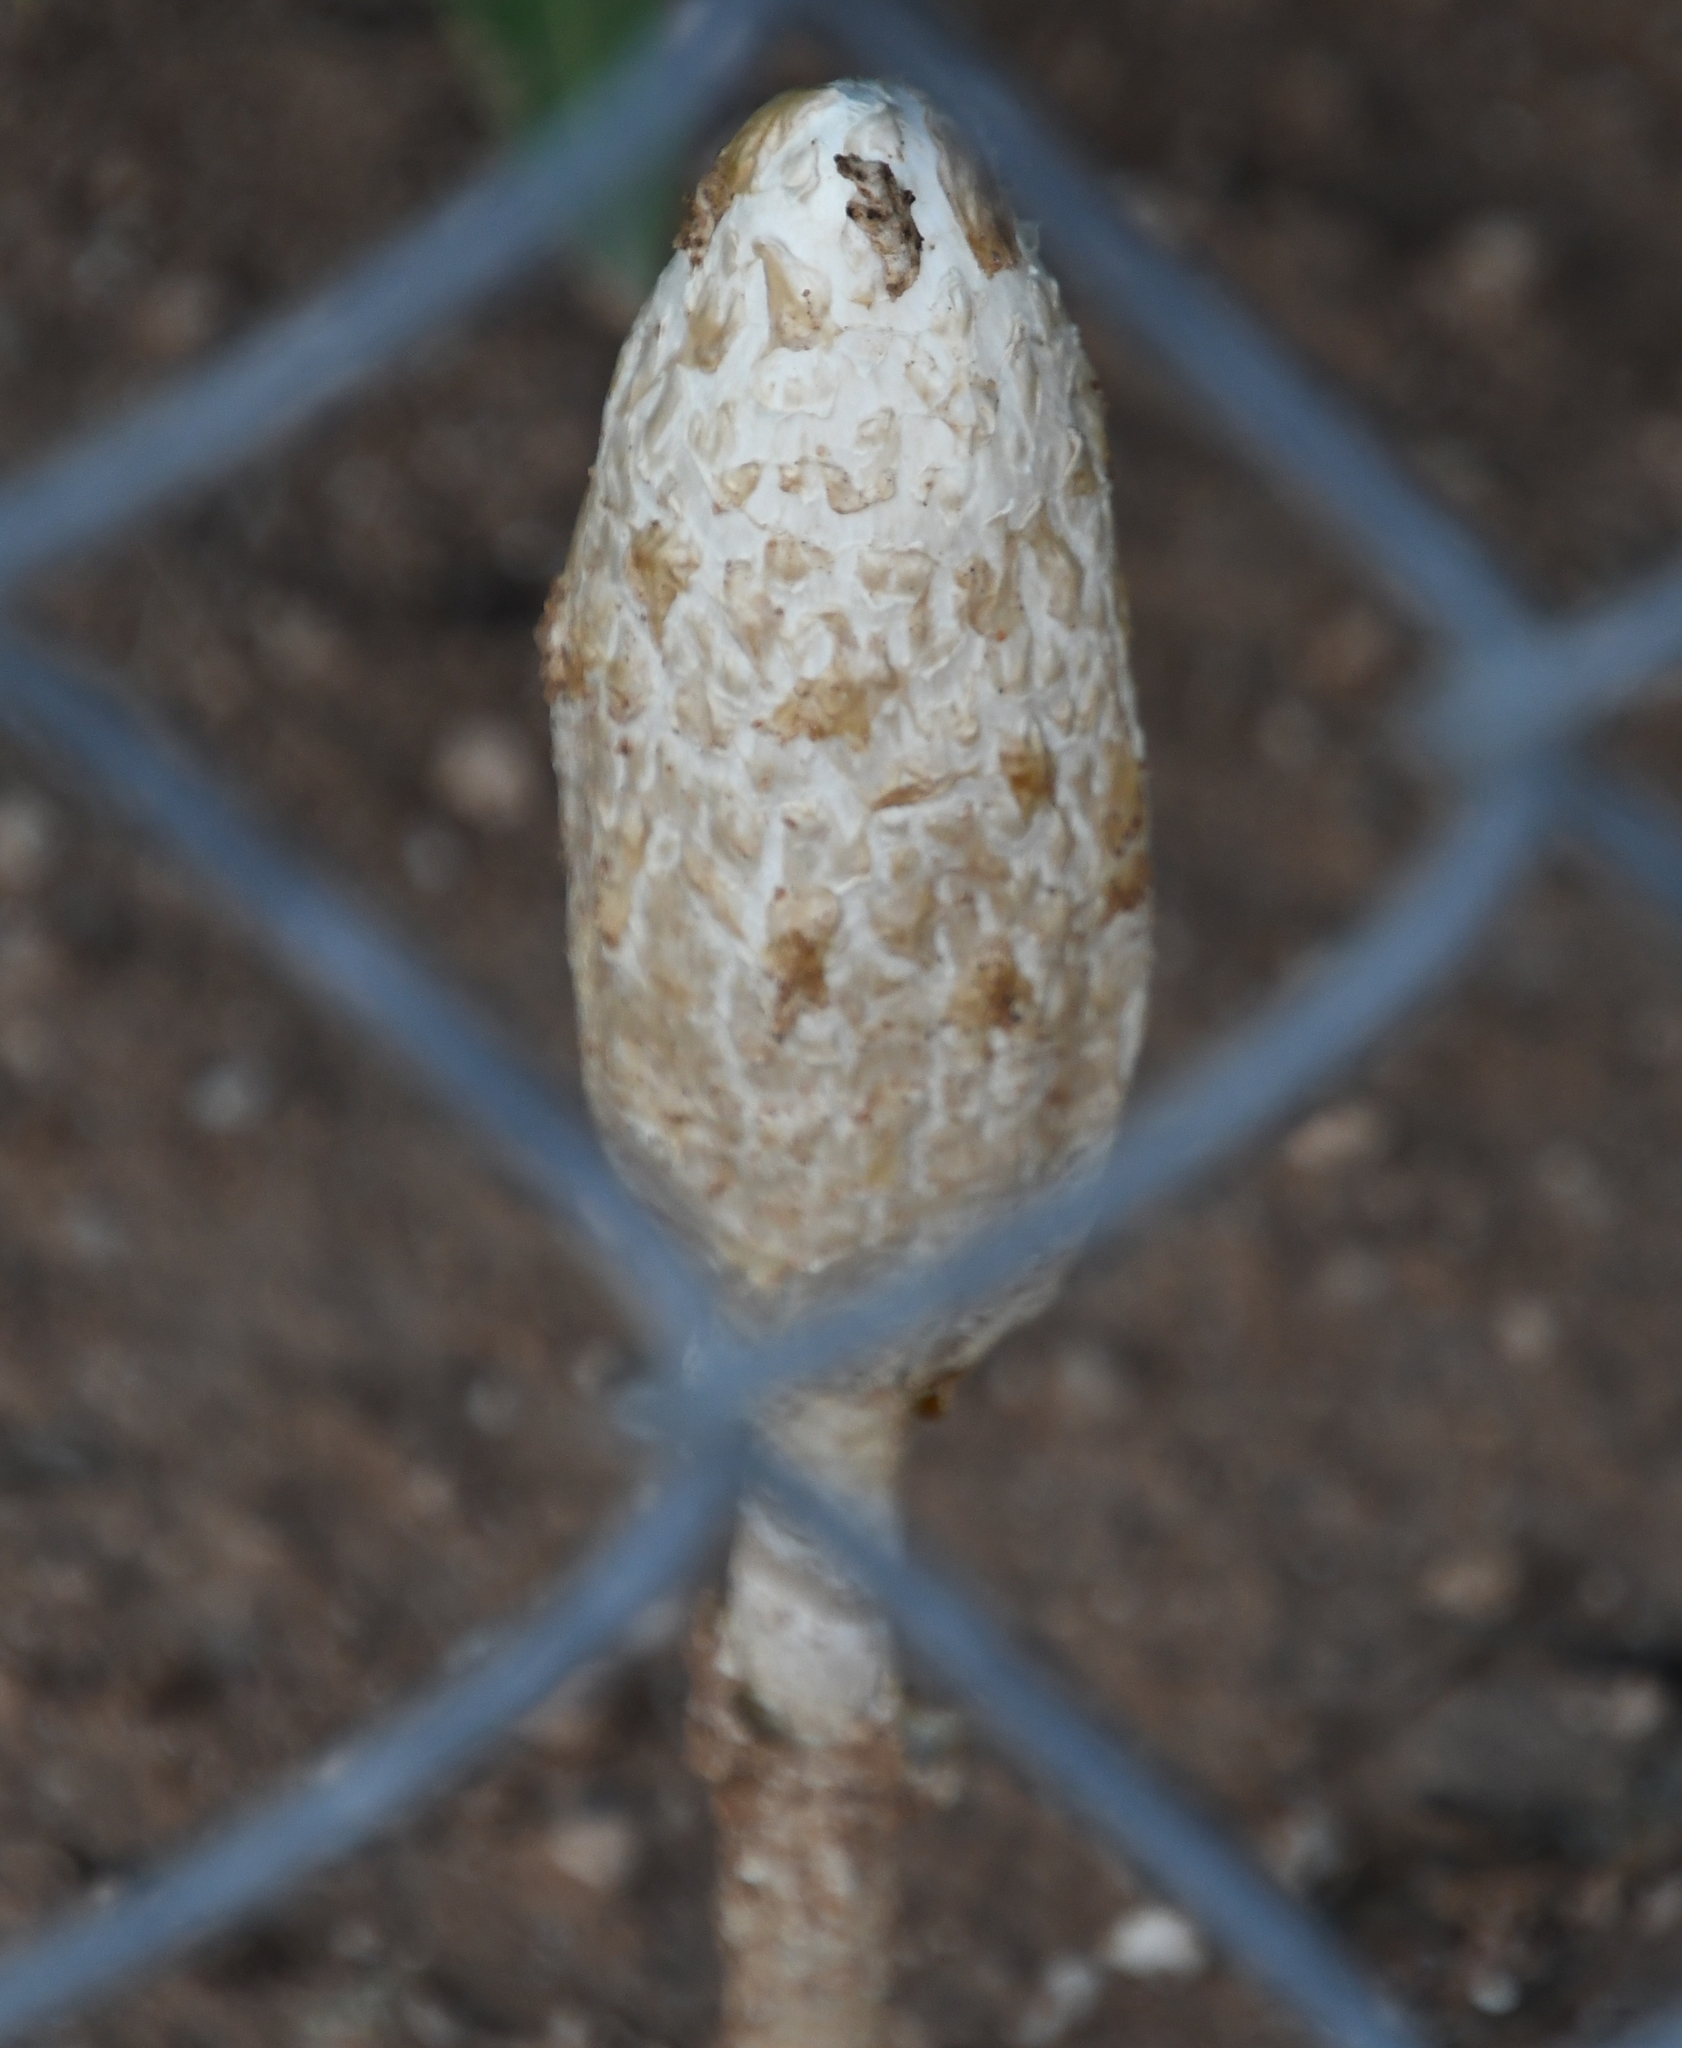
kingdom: Fungi
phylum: Basidiomycota
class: Agaricomycetes
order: Agaricales
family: Agaricaceae
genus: Podaxis
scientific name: Podaxis pistillaris
